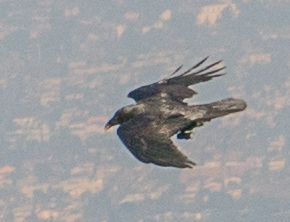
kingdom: Animalia
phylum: Chordata
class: Aves
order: Passeriformes
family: Corvidae
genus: Corvus
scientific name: Corvus corax
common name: Common raven
